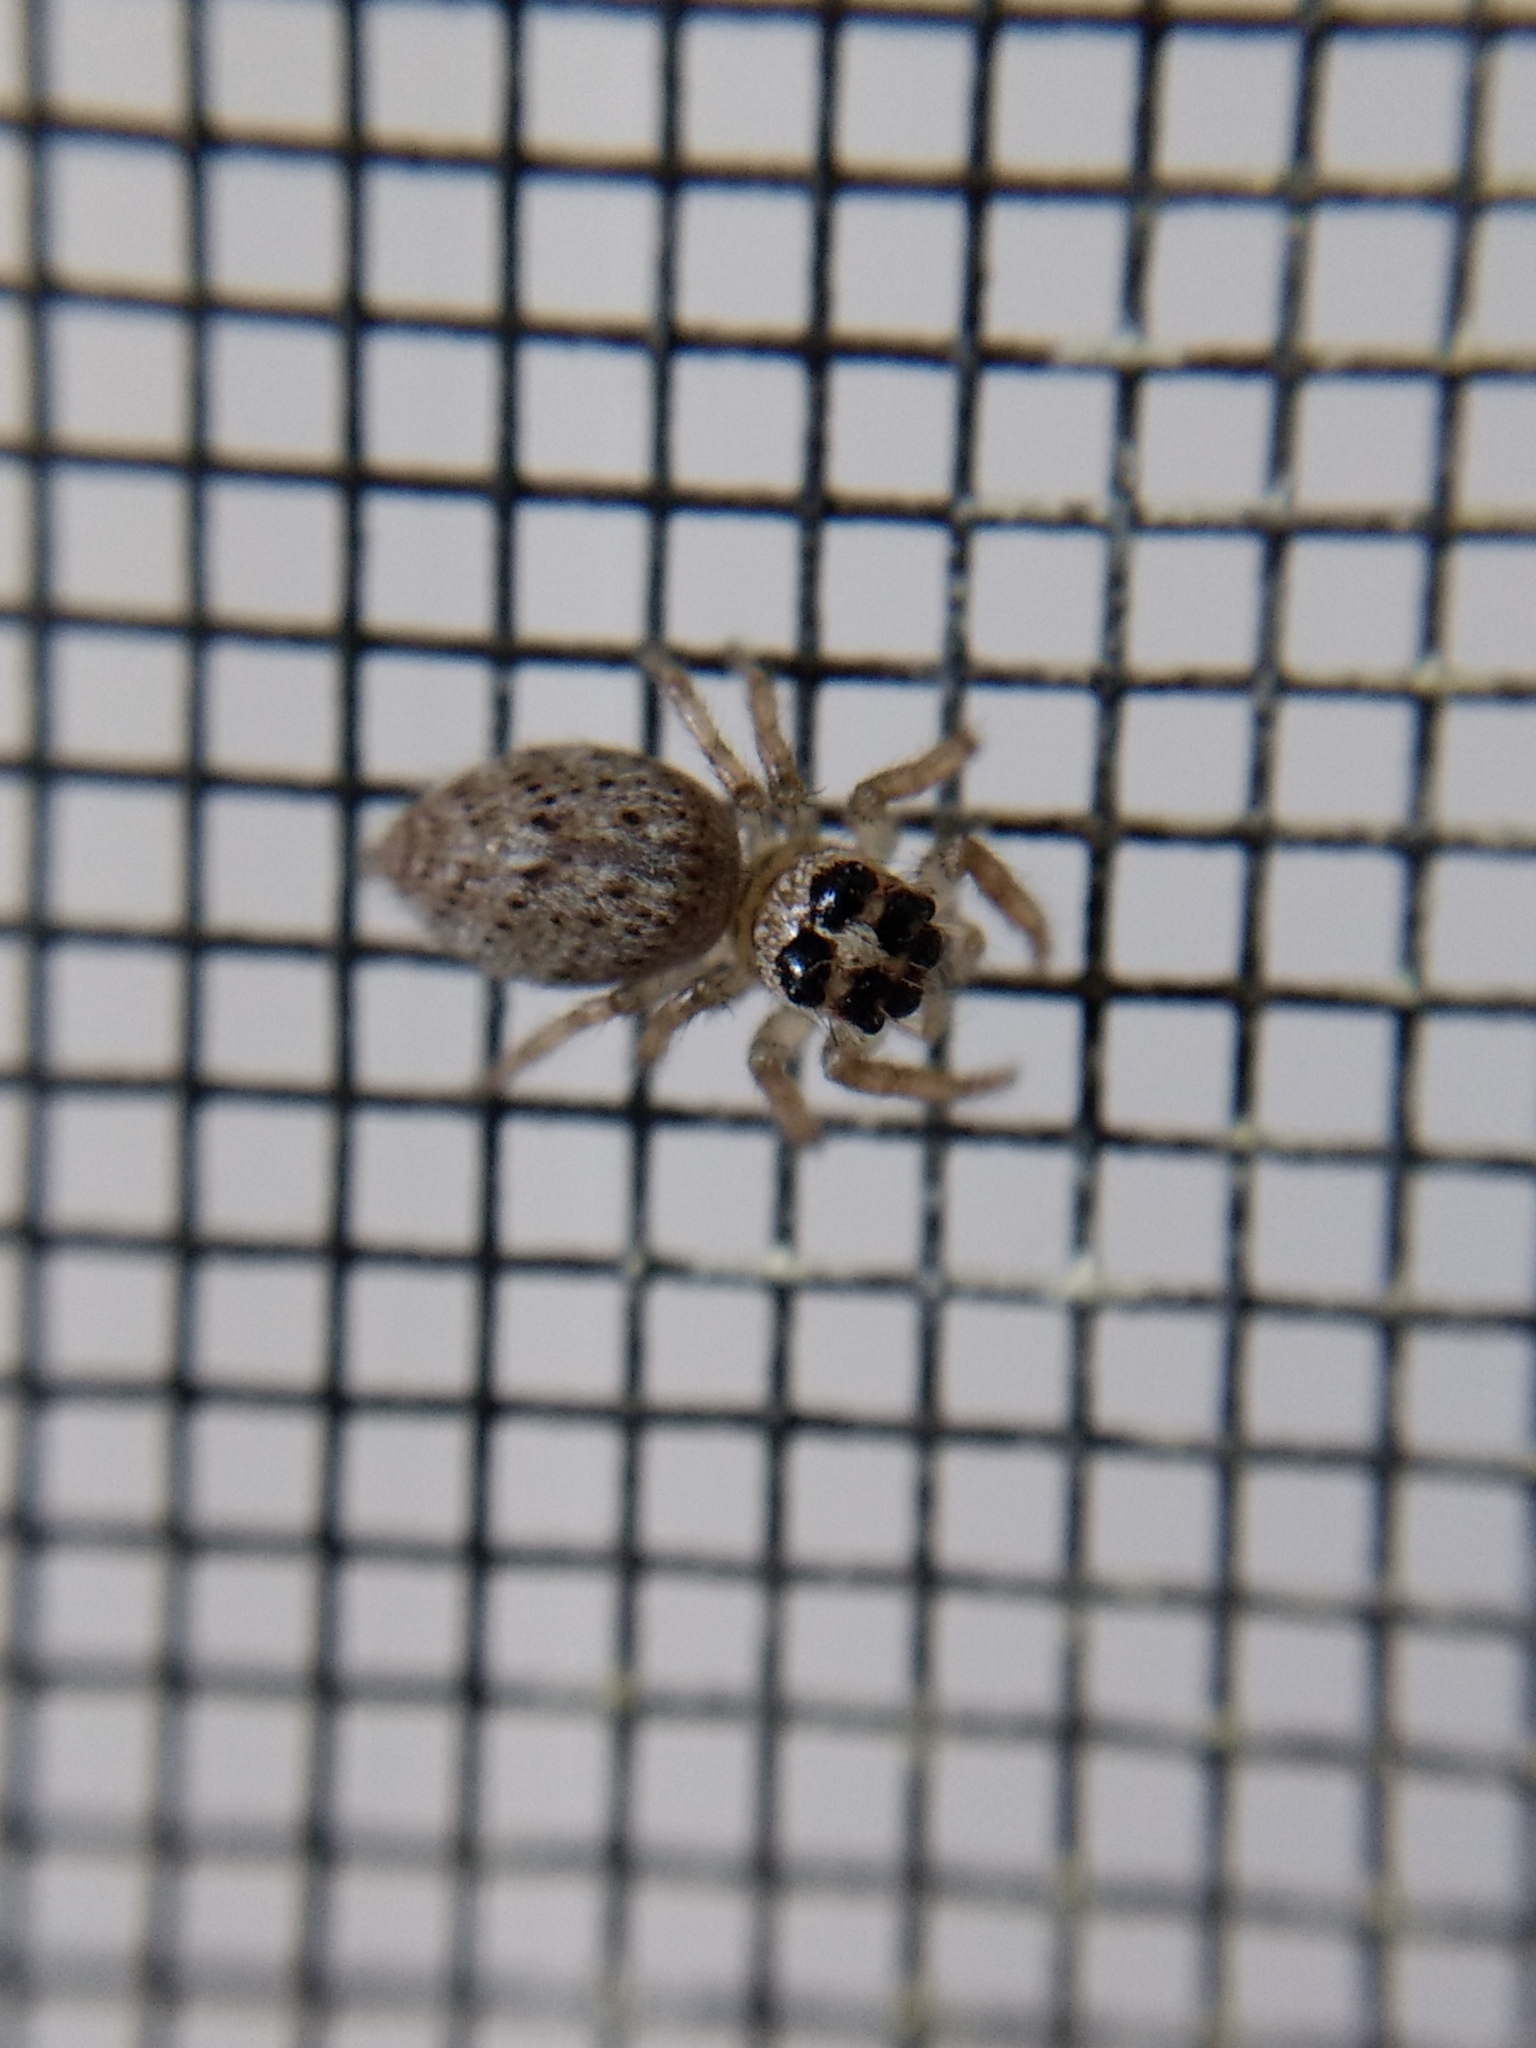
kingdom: Animalia
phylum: Arthropoda
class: Arachnida
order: Araneae
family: Salticidae
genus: Colonus
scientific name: Colonus hesperus
